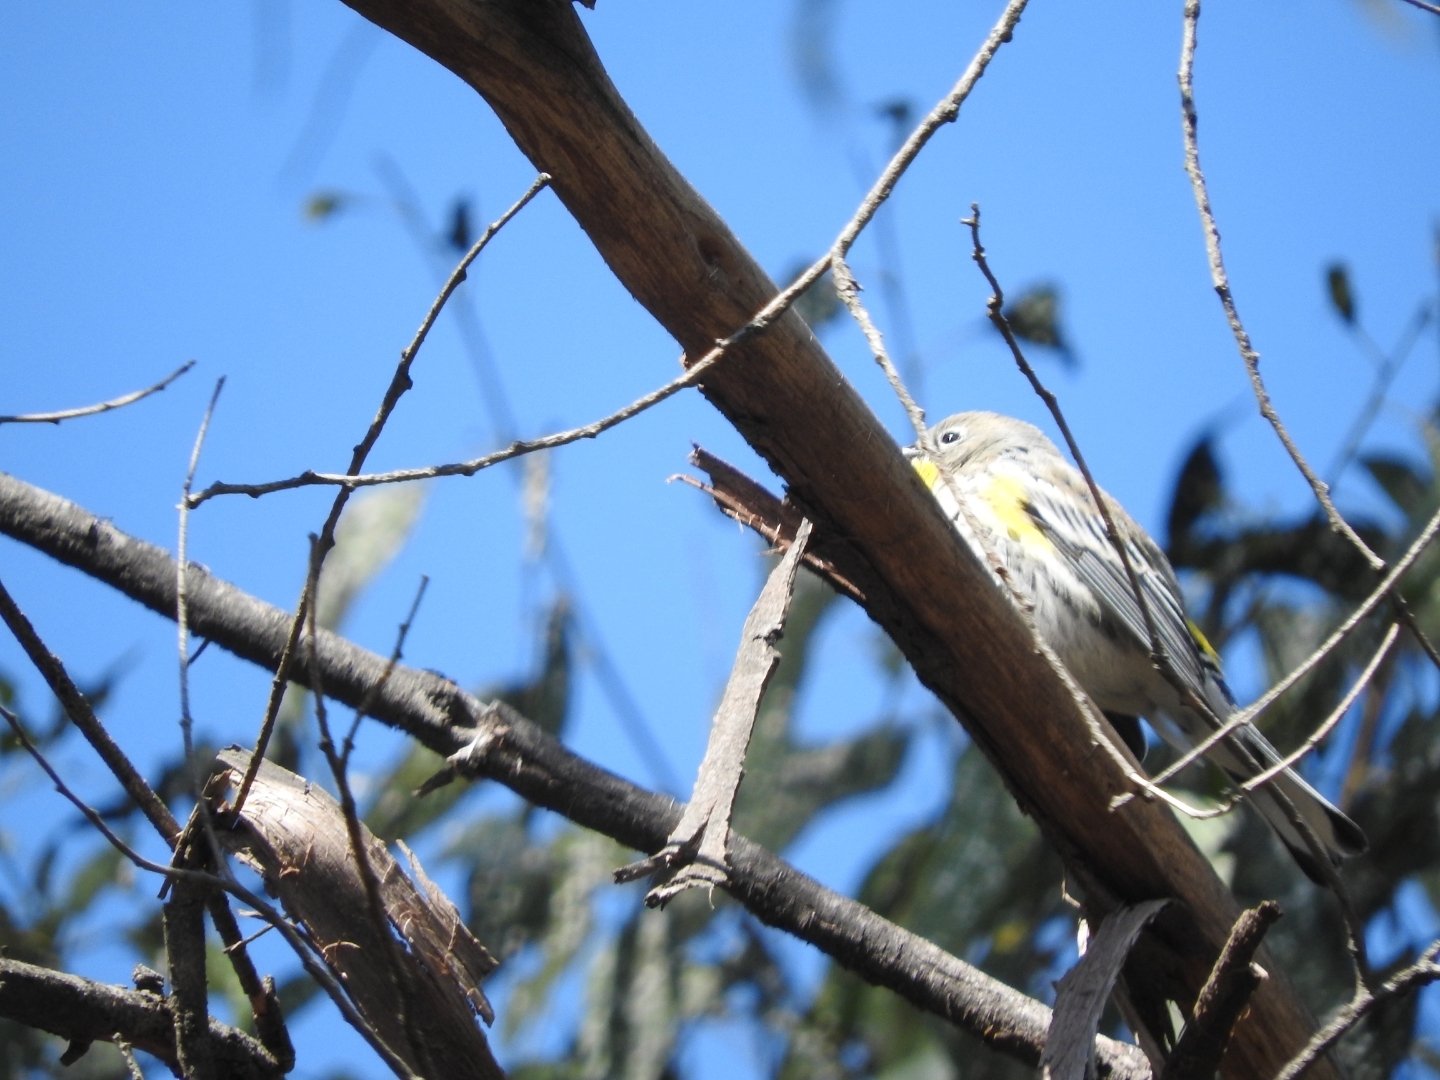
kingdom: Animalia
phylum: Chordata
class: Aves
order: Passeriformes
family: Parulidae
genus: Setophaga
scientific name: Setophaga coronata
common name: Myrtle warbler
